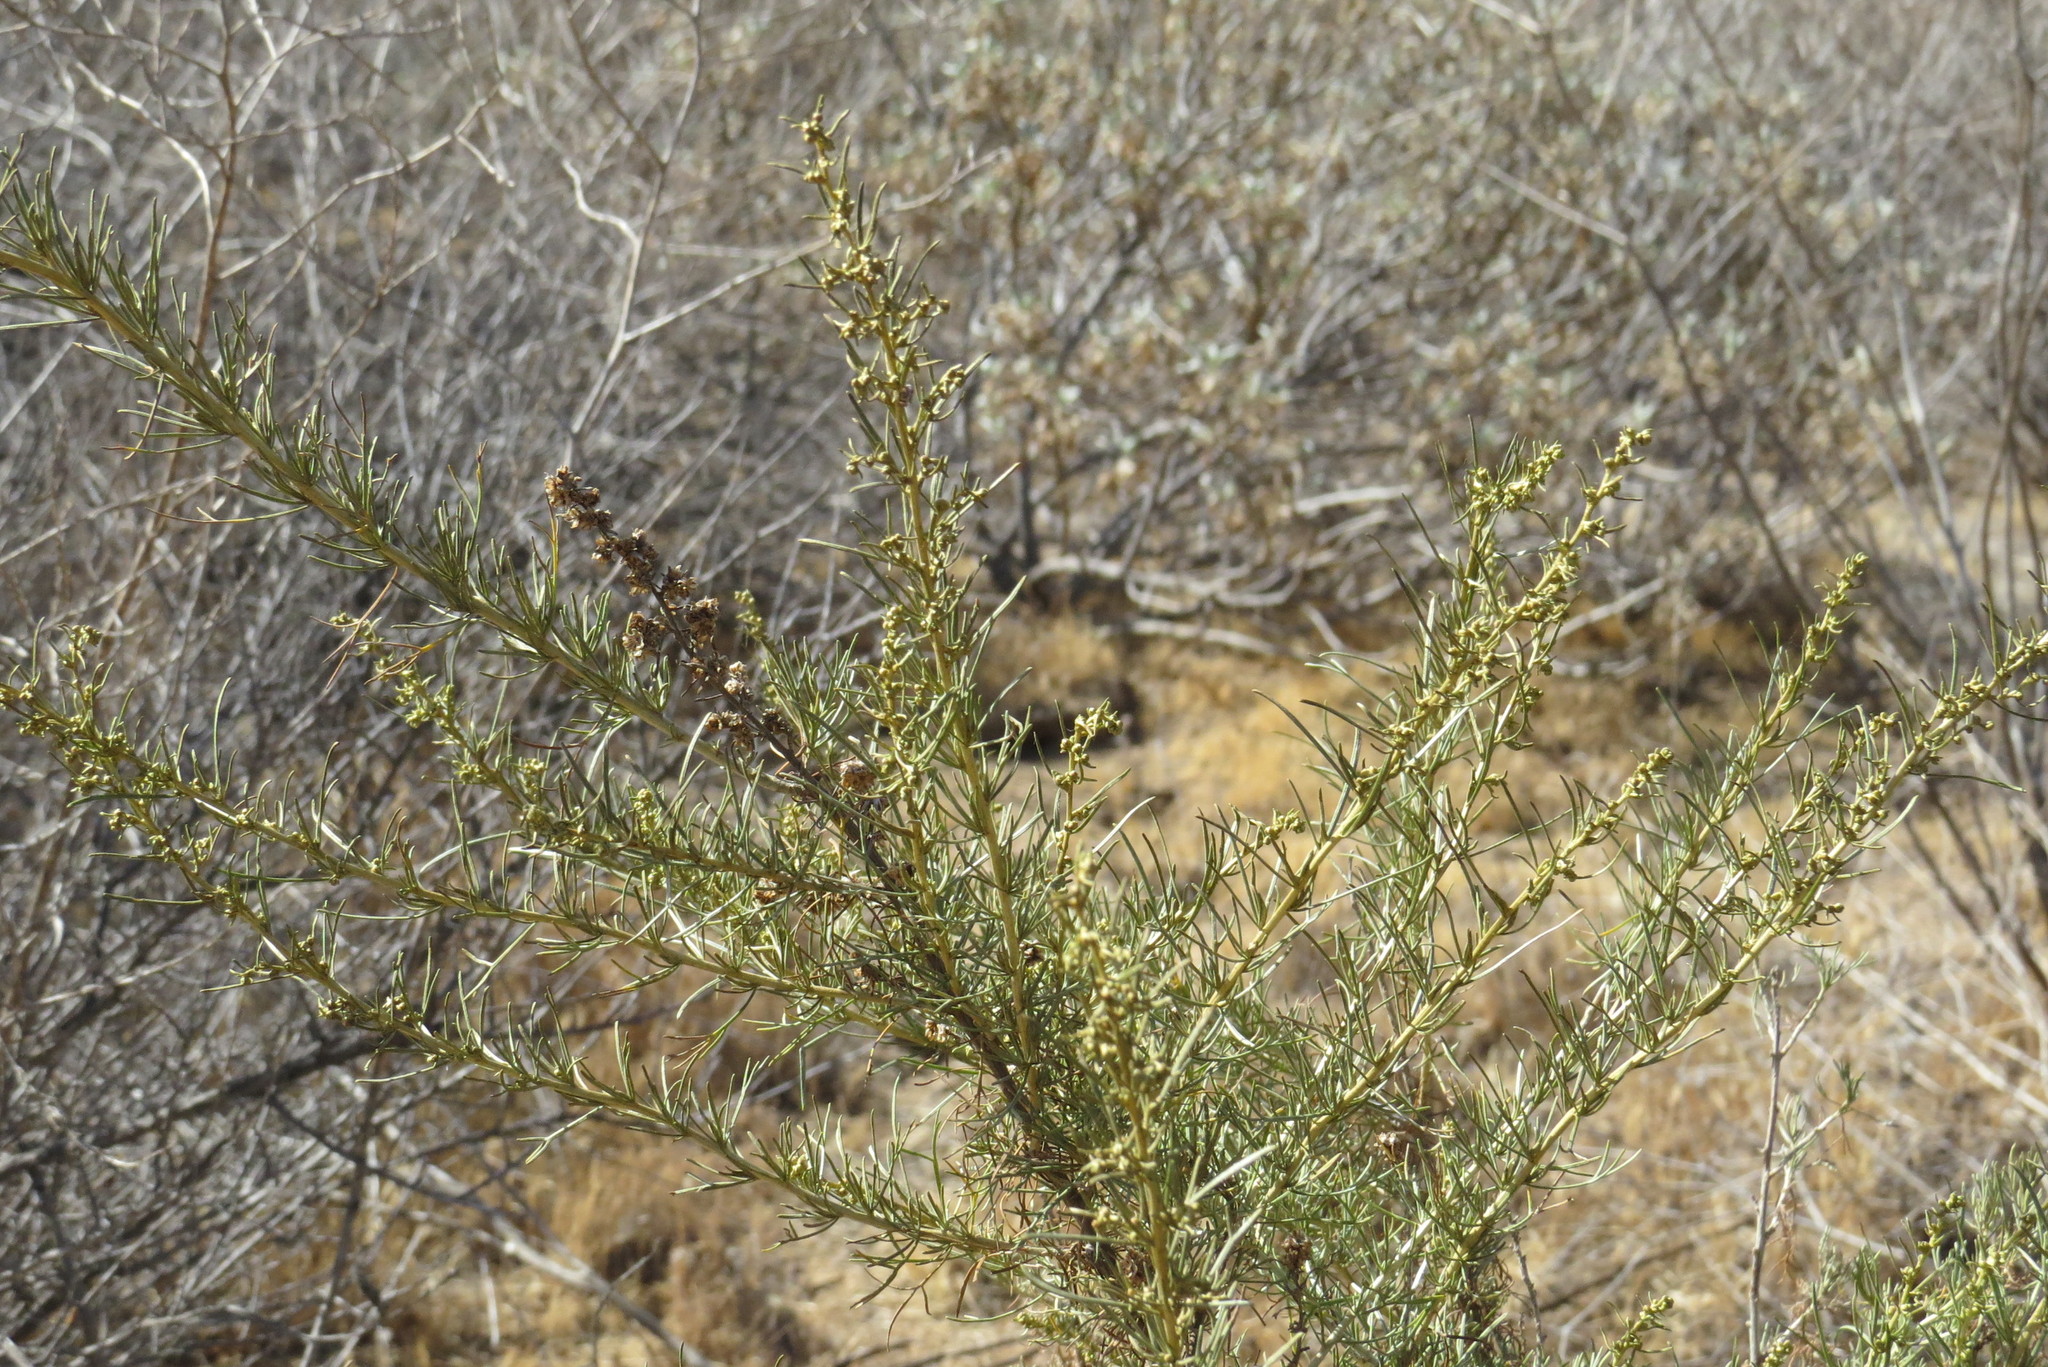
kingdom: Plantae
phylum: Tracheophyta
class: Magnoliopsida
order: Asterales
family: Asteraceae
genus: Artemisia
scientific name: Artemisia californica
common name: California sagebrush
